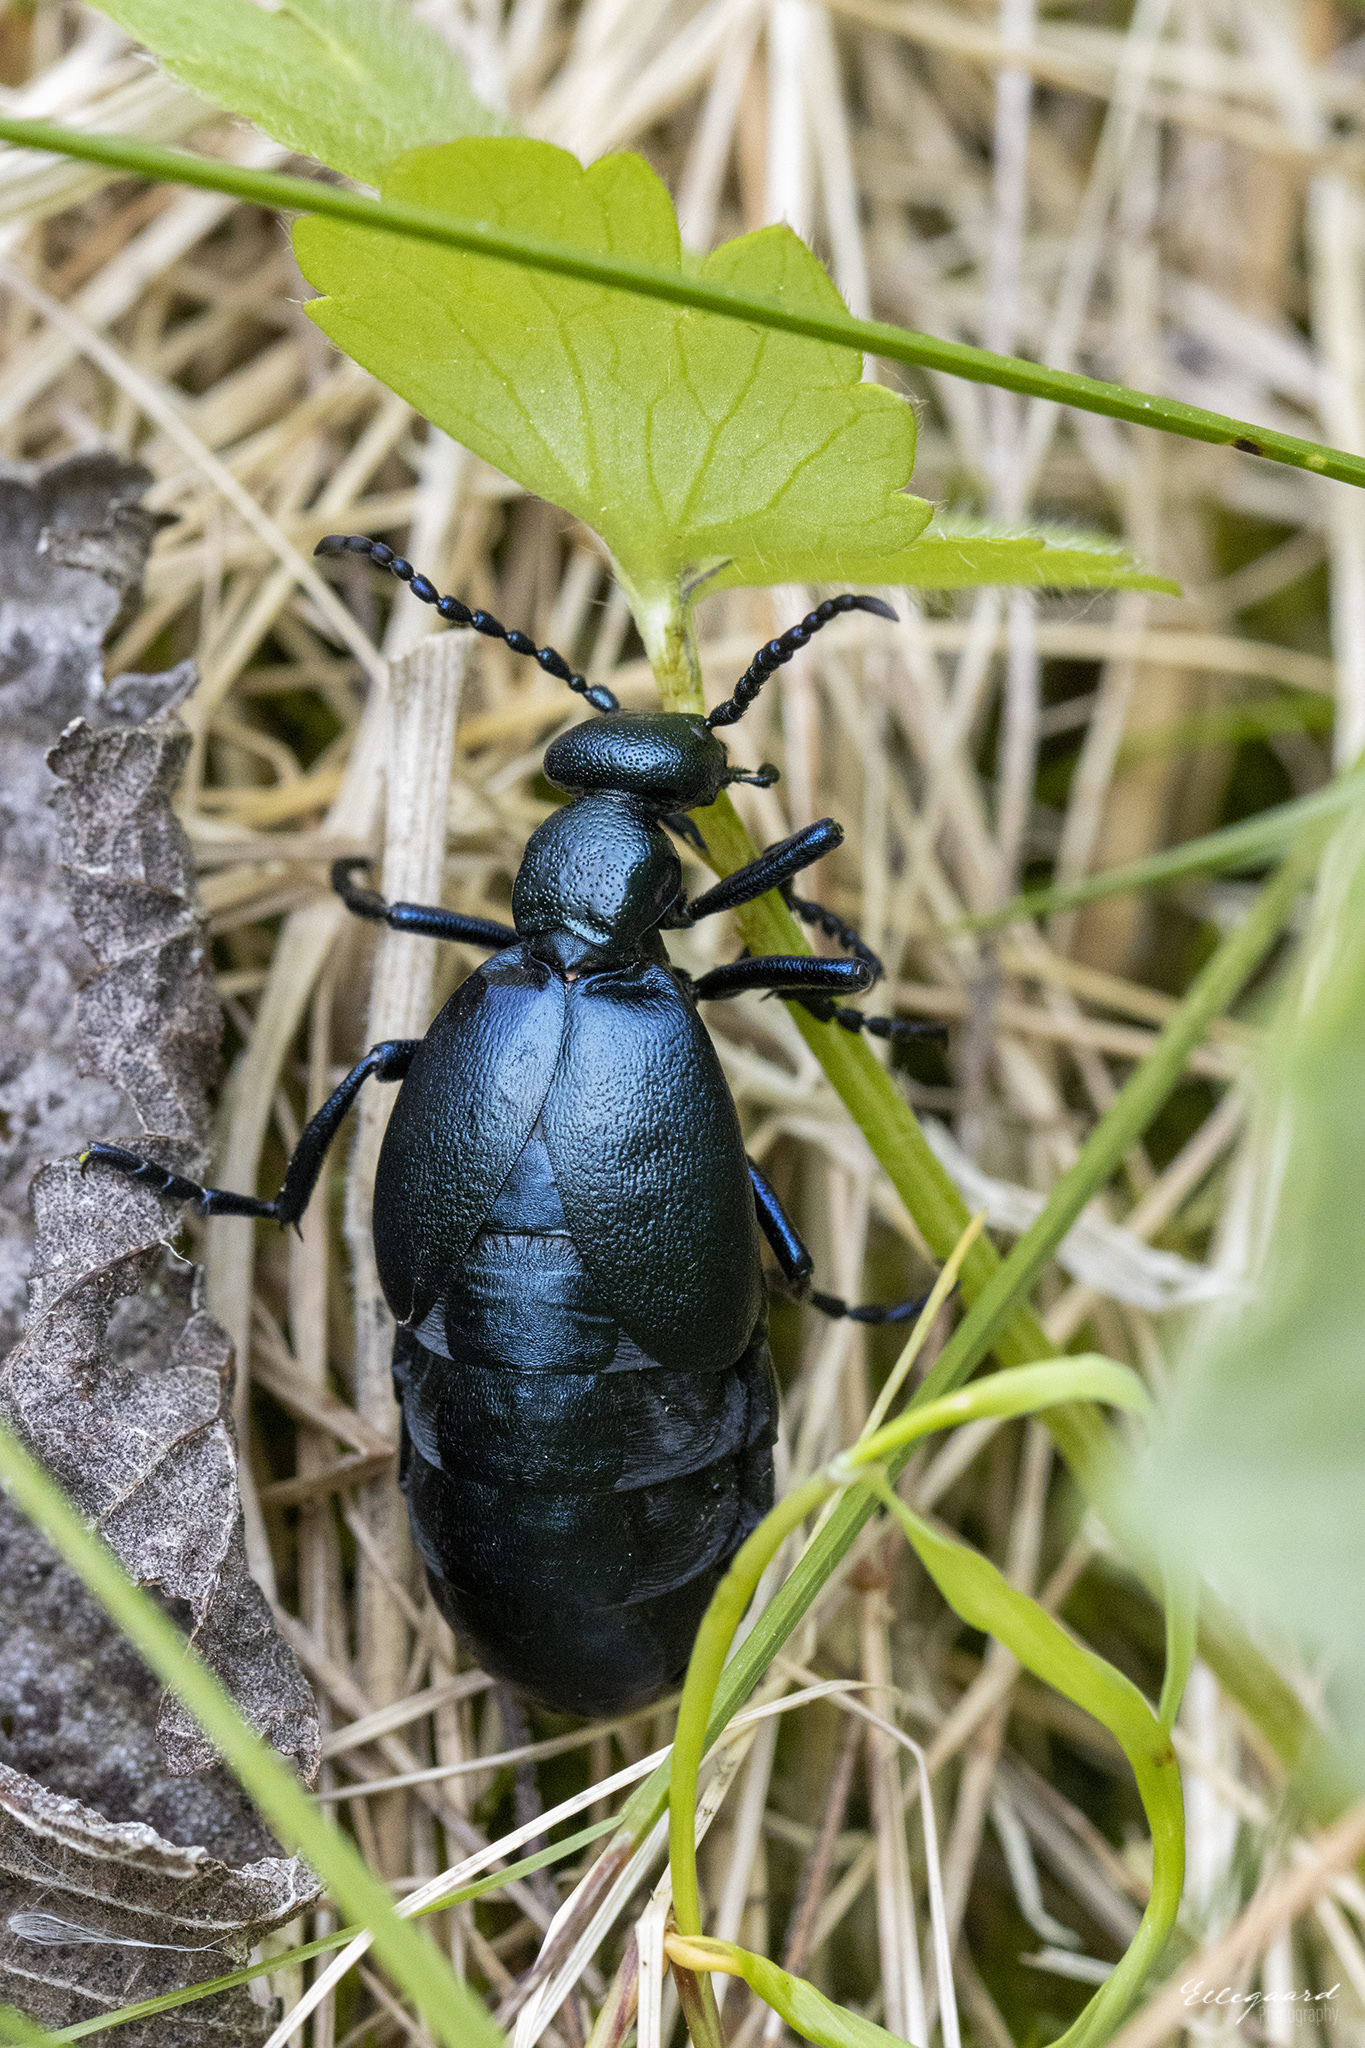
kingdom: Animalia
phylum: Arthropoda
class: Insecta
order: Coleoptera
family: Meloidae
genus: Meloe
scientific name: Meloe violaceus
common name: Violet oil-beetle
